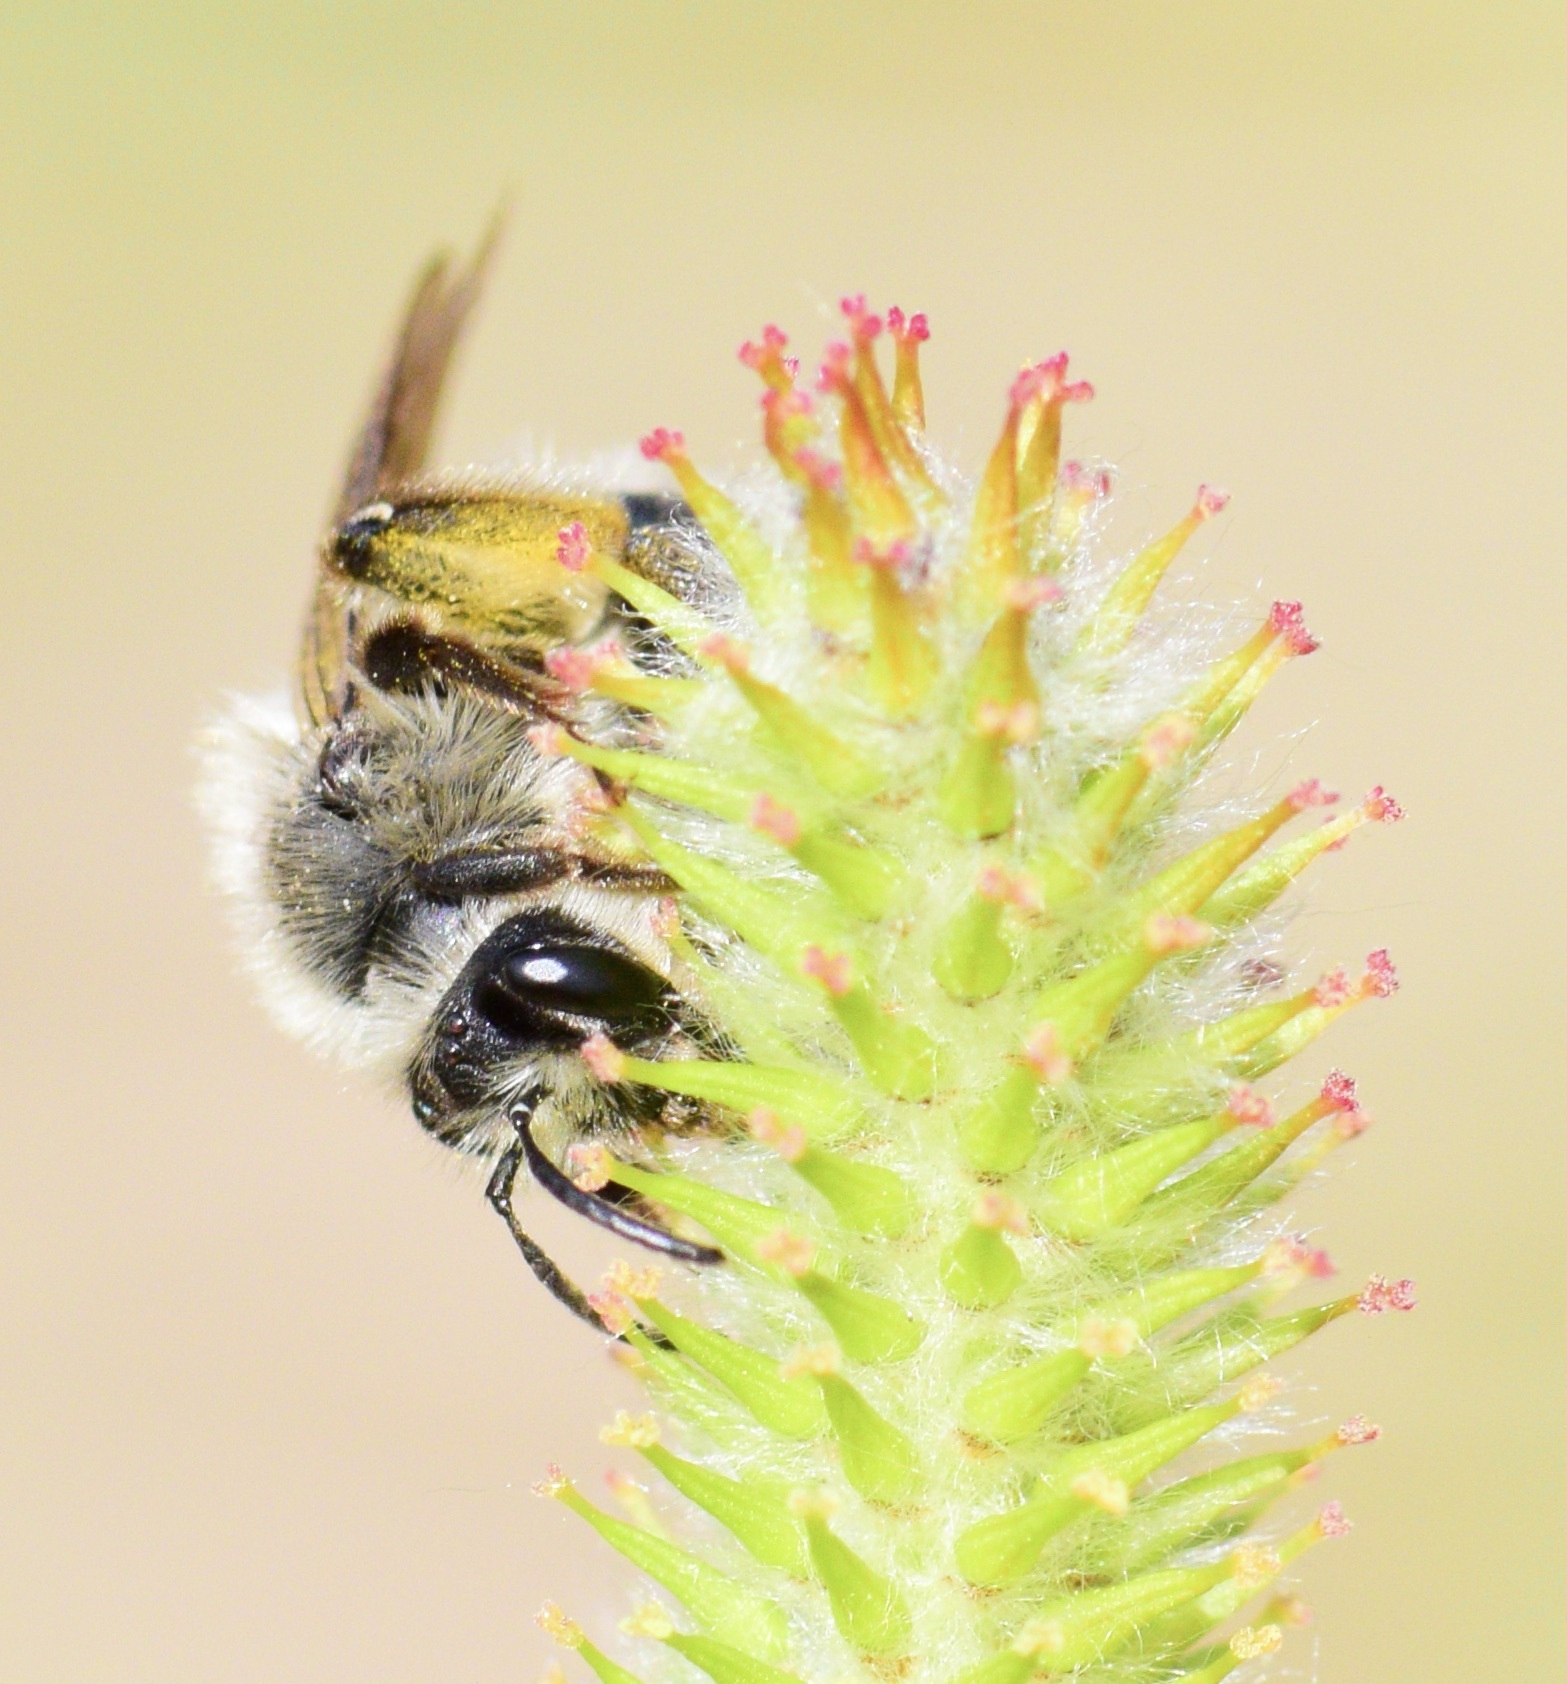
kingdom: Animalia
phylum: Arthropoda
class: Insecta
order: Hymenoptera
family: Andrenidae
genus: Andrena
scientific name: Andrena frigida
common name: Frigid mining bee
